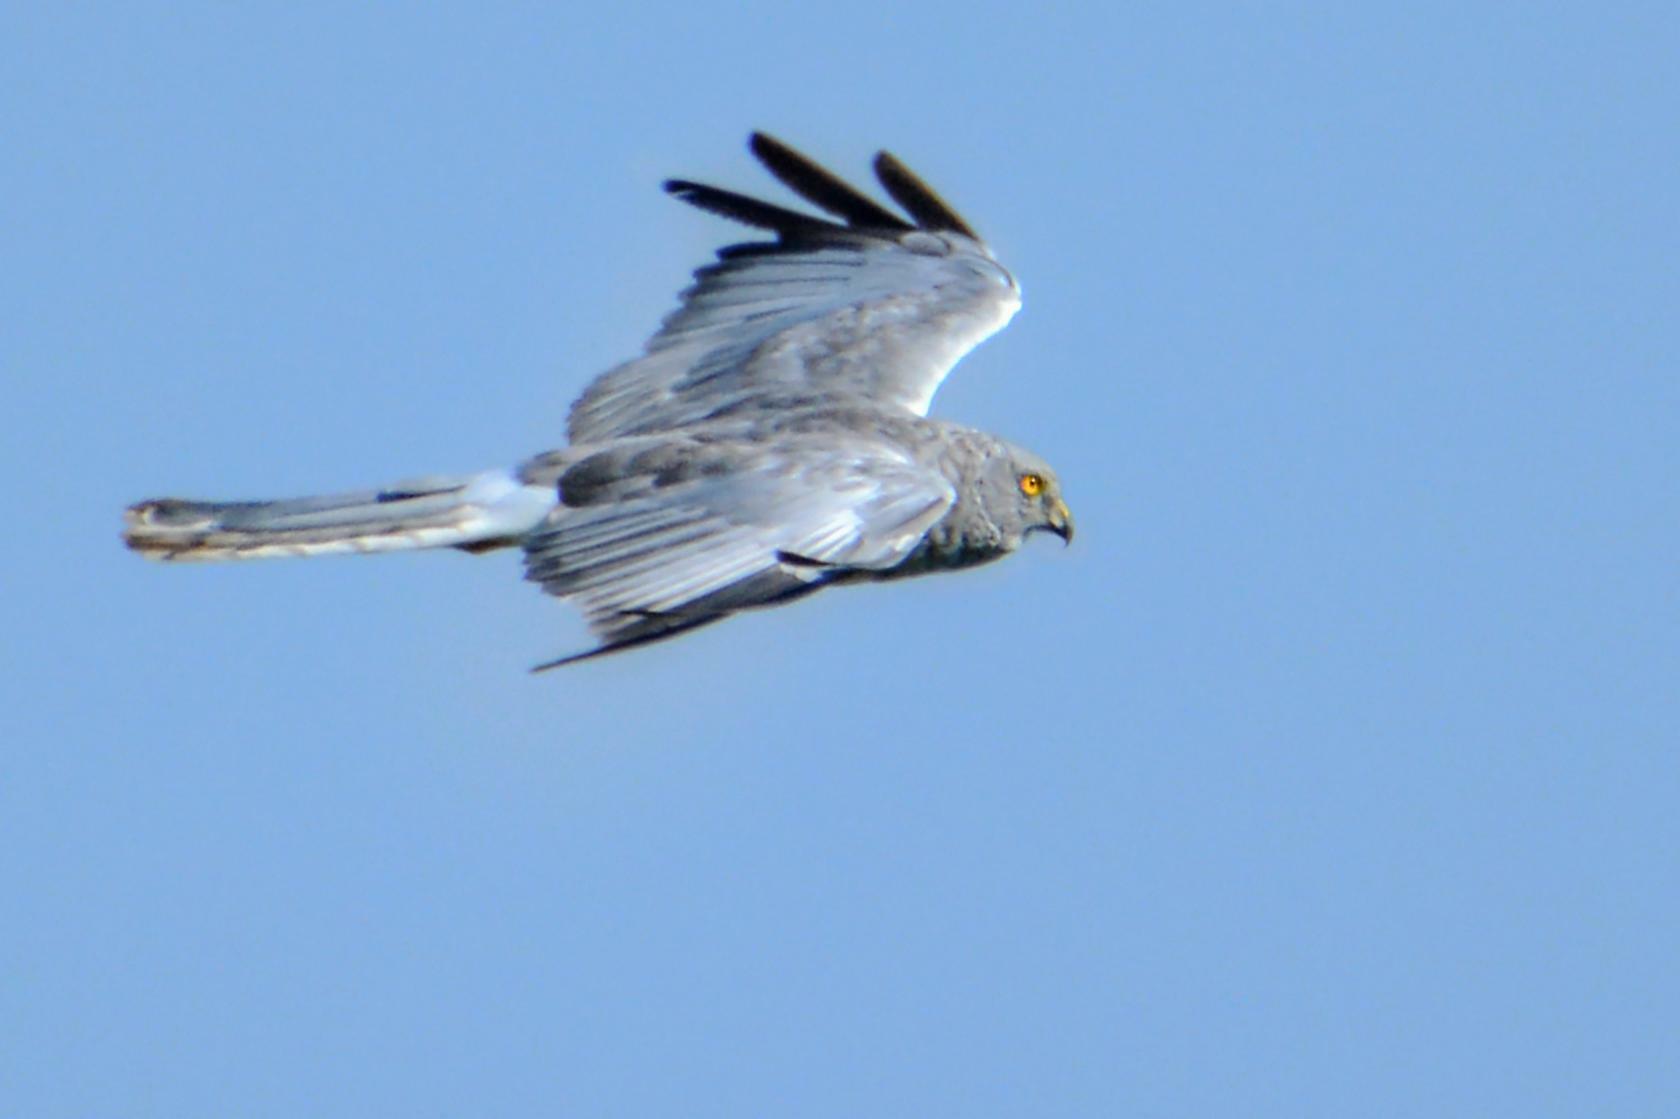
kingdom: Animalia
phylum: Chordata
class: Aves
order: Accipitriformes
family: Accipitridae
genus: Circus
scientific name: Circus cyaneus
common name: Hen harrier
